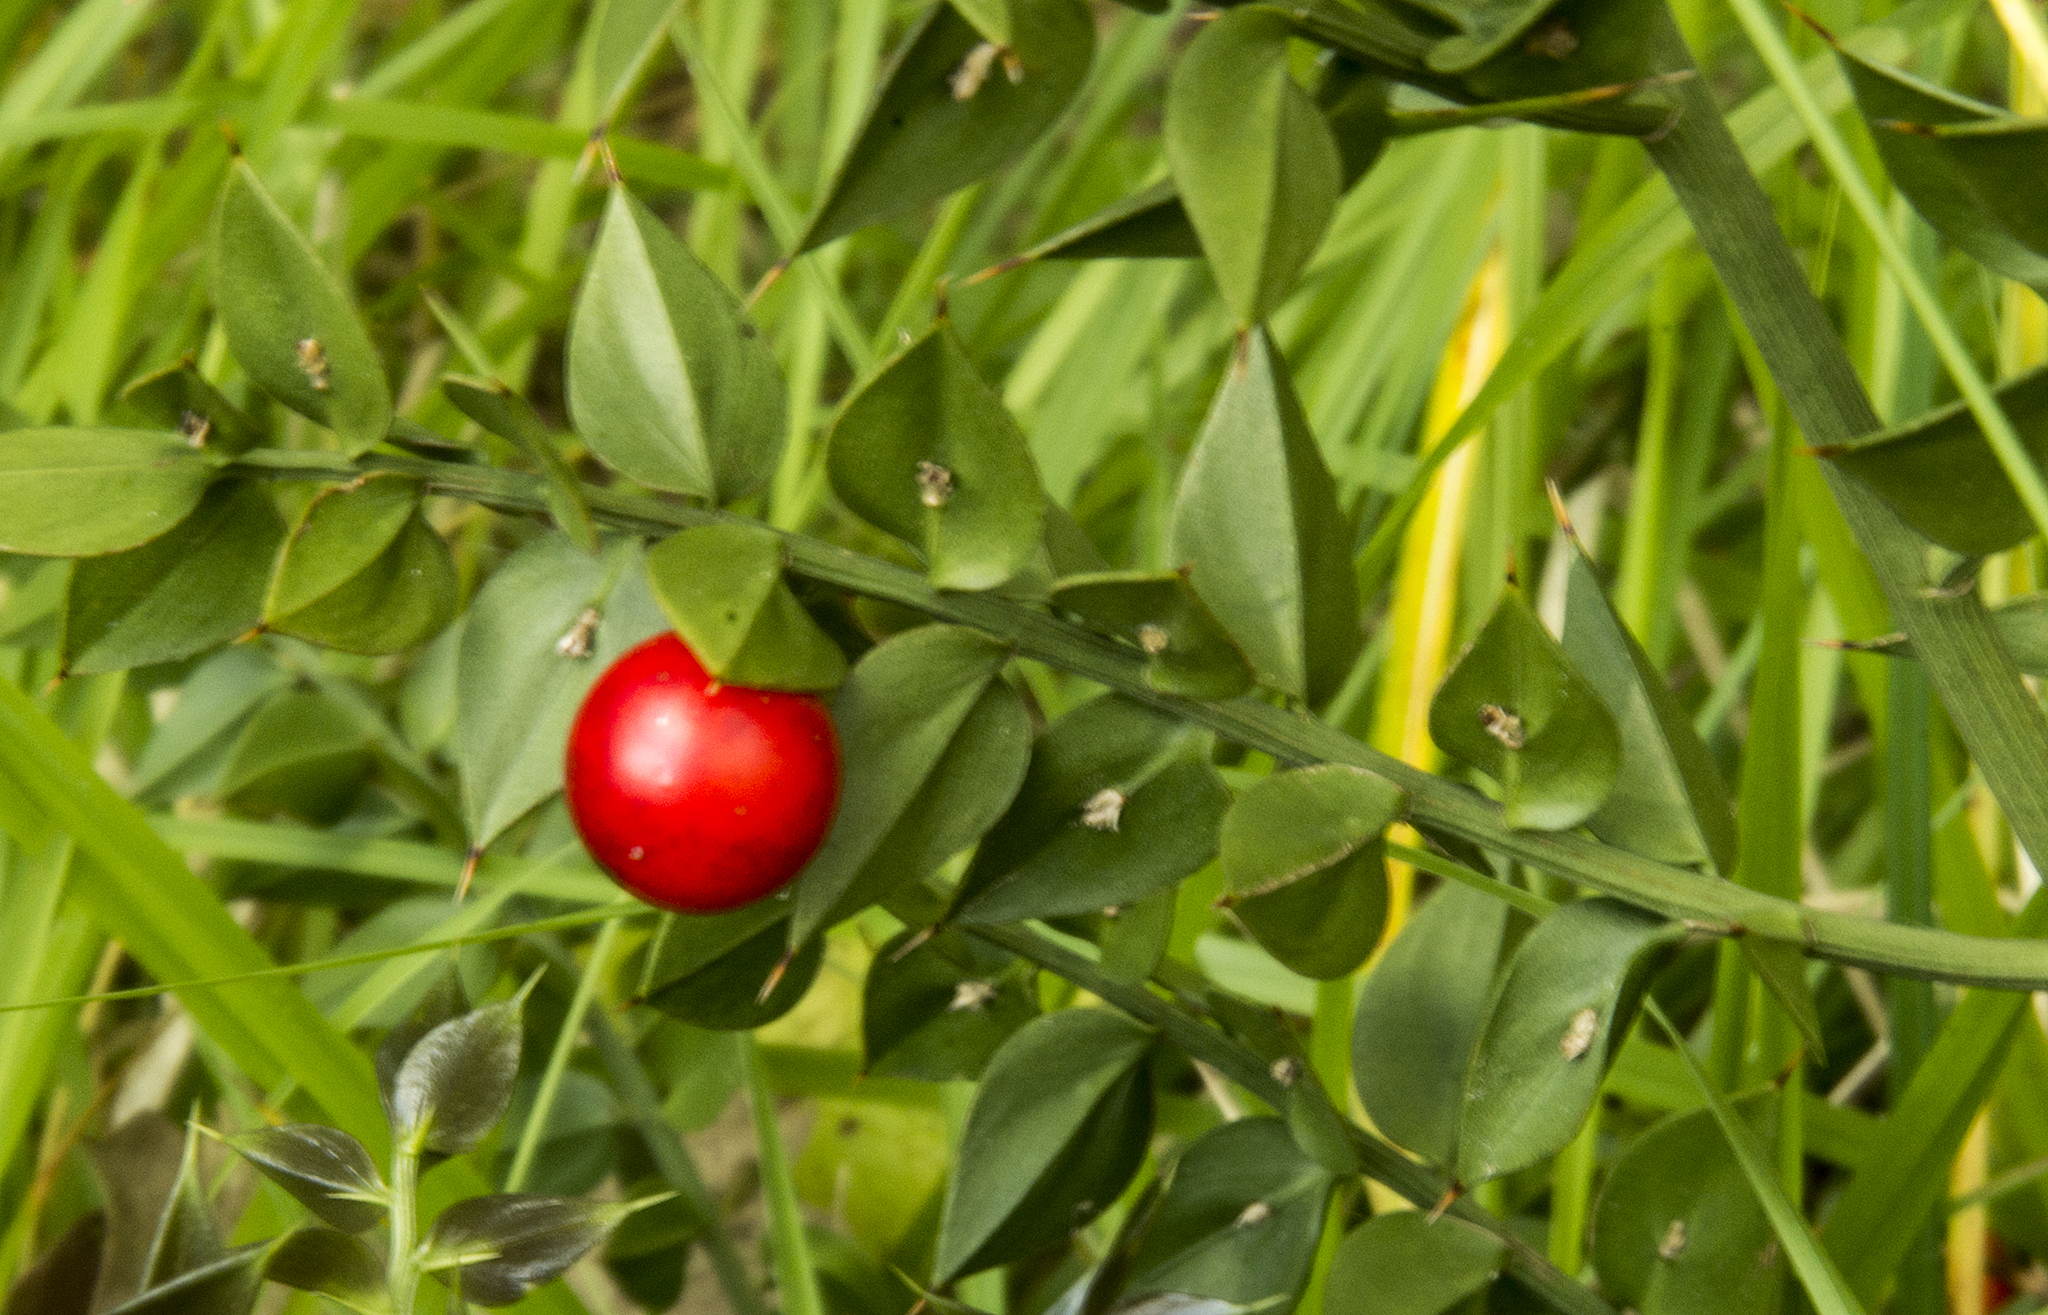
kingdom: Plantae
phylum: Tracheophyta
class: Liliopsida
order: Asparagales
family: Asparagaceae
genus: Ruscus
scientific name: Ruscus aculeatus
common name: Butcher's-broom
